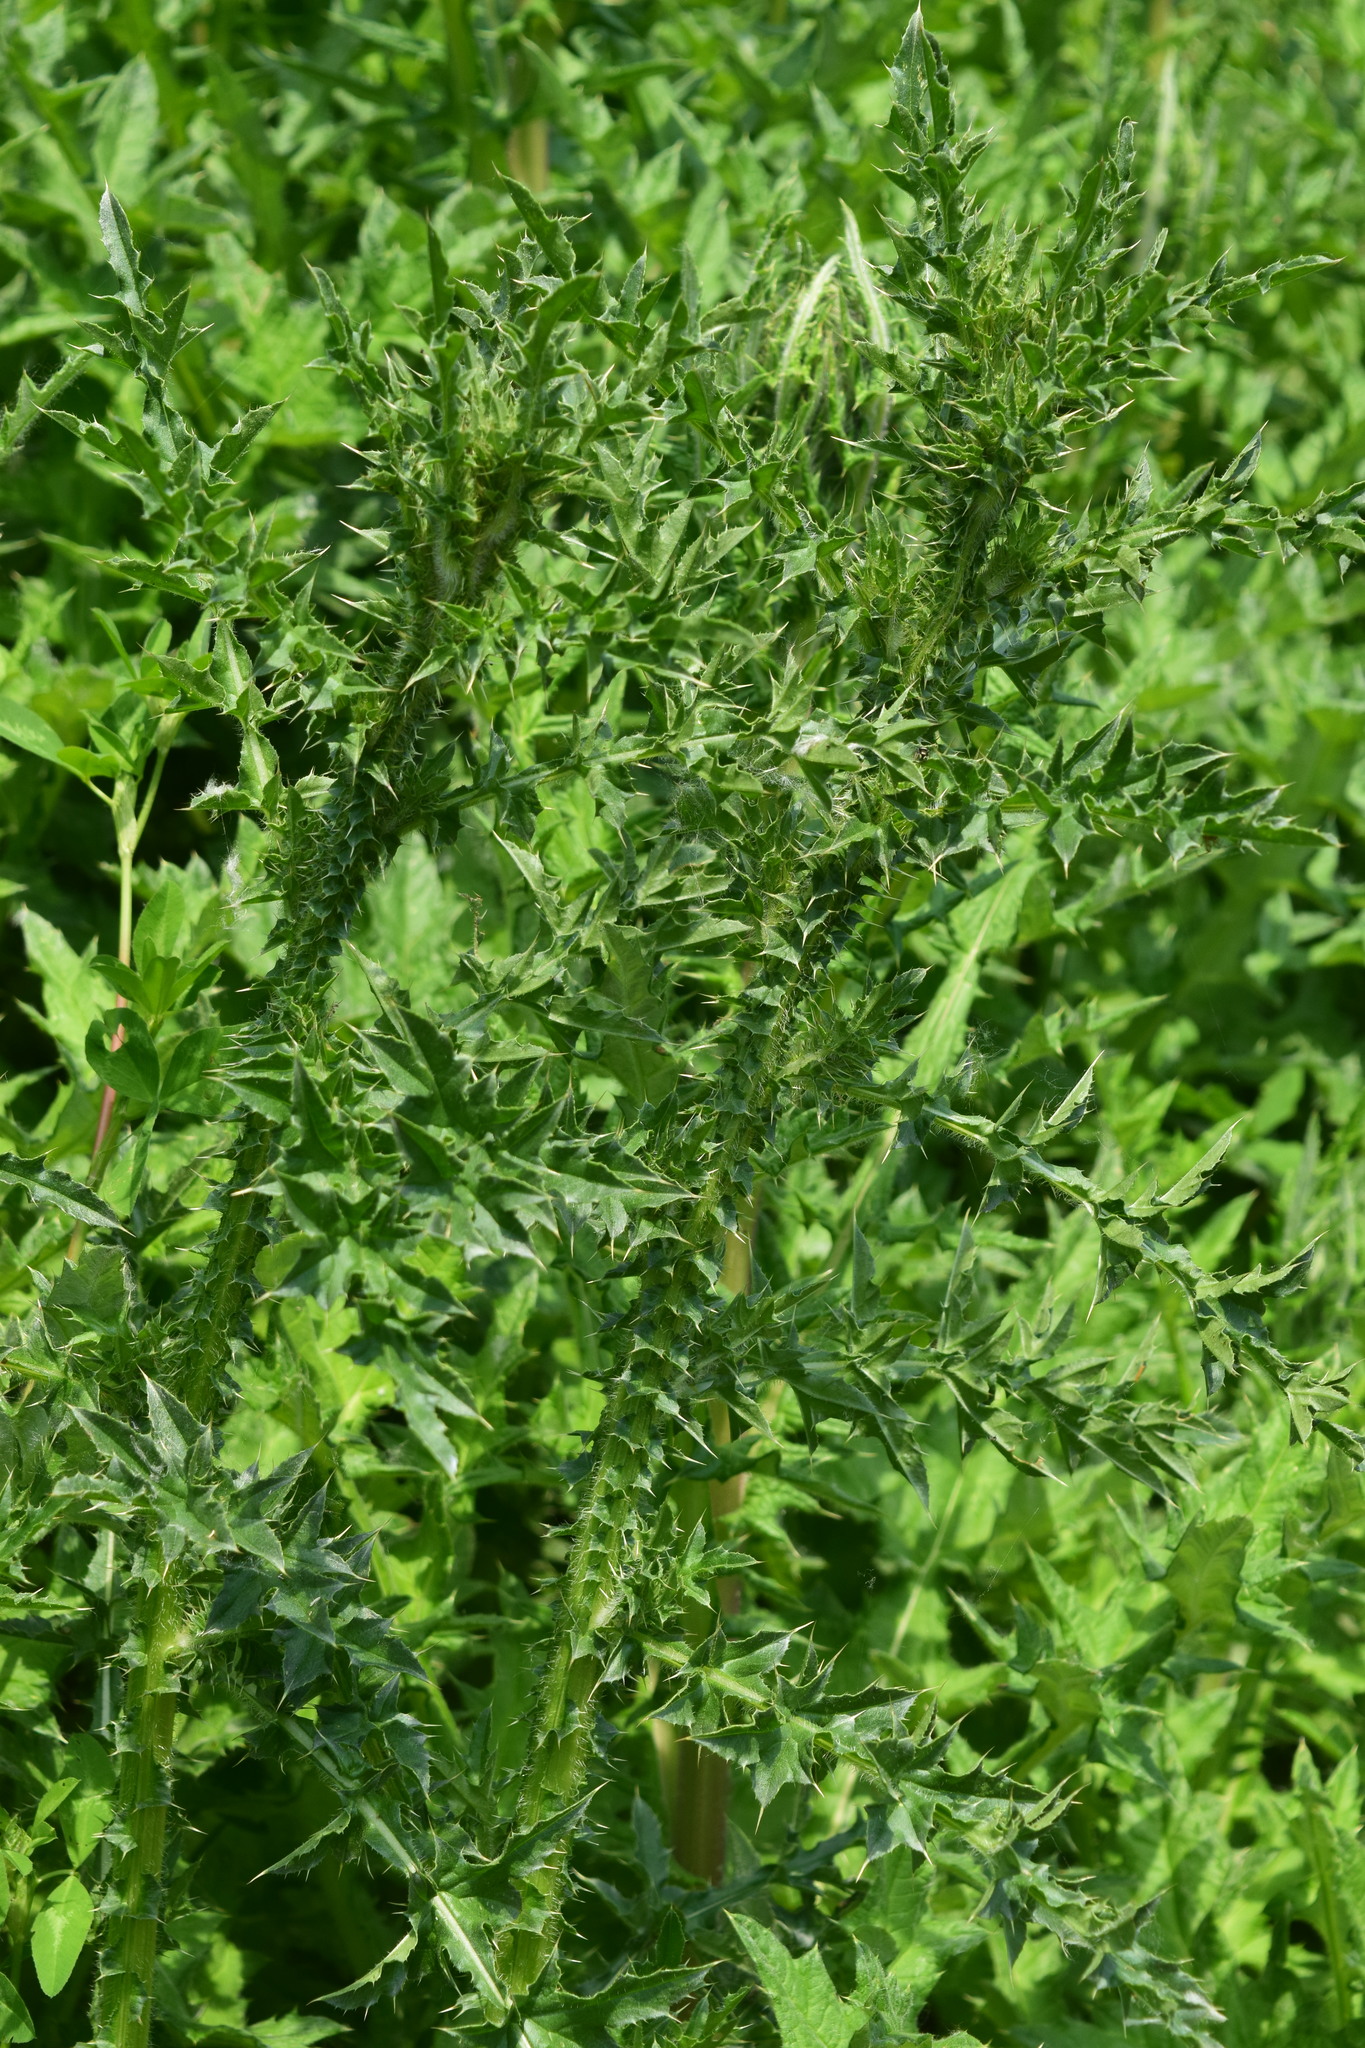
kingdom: Plantae
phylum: Tracheophyta
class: Magnoliopsida
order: Asterales
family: Asteraceae
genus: Carduus
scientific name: Carduus acanthoides
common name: Plumeless thistle
